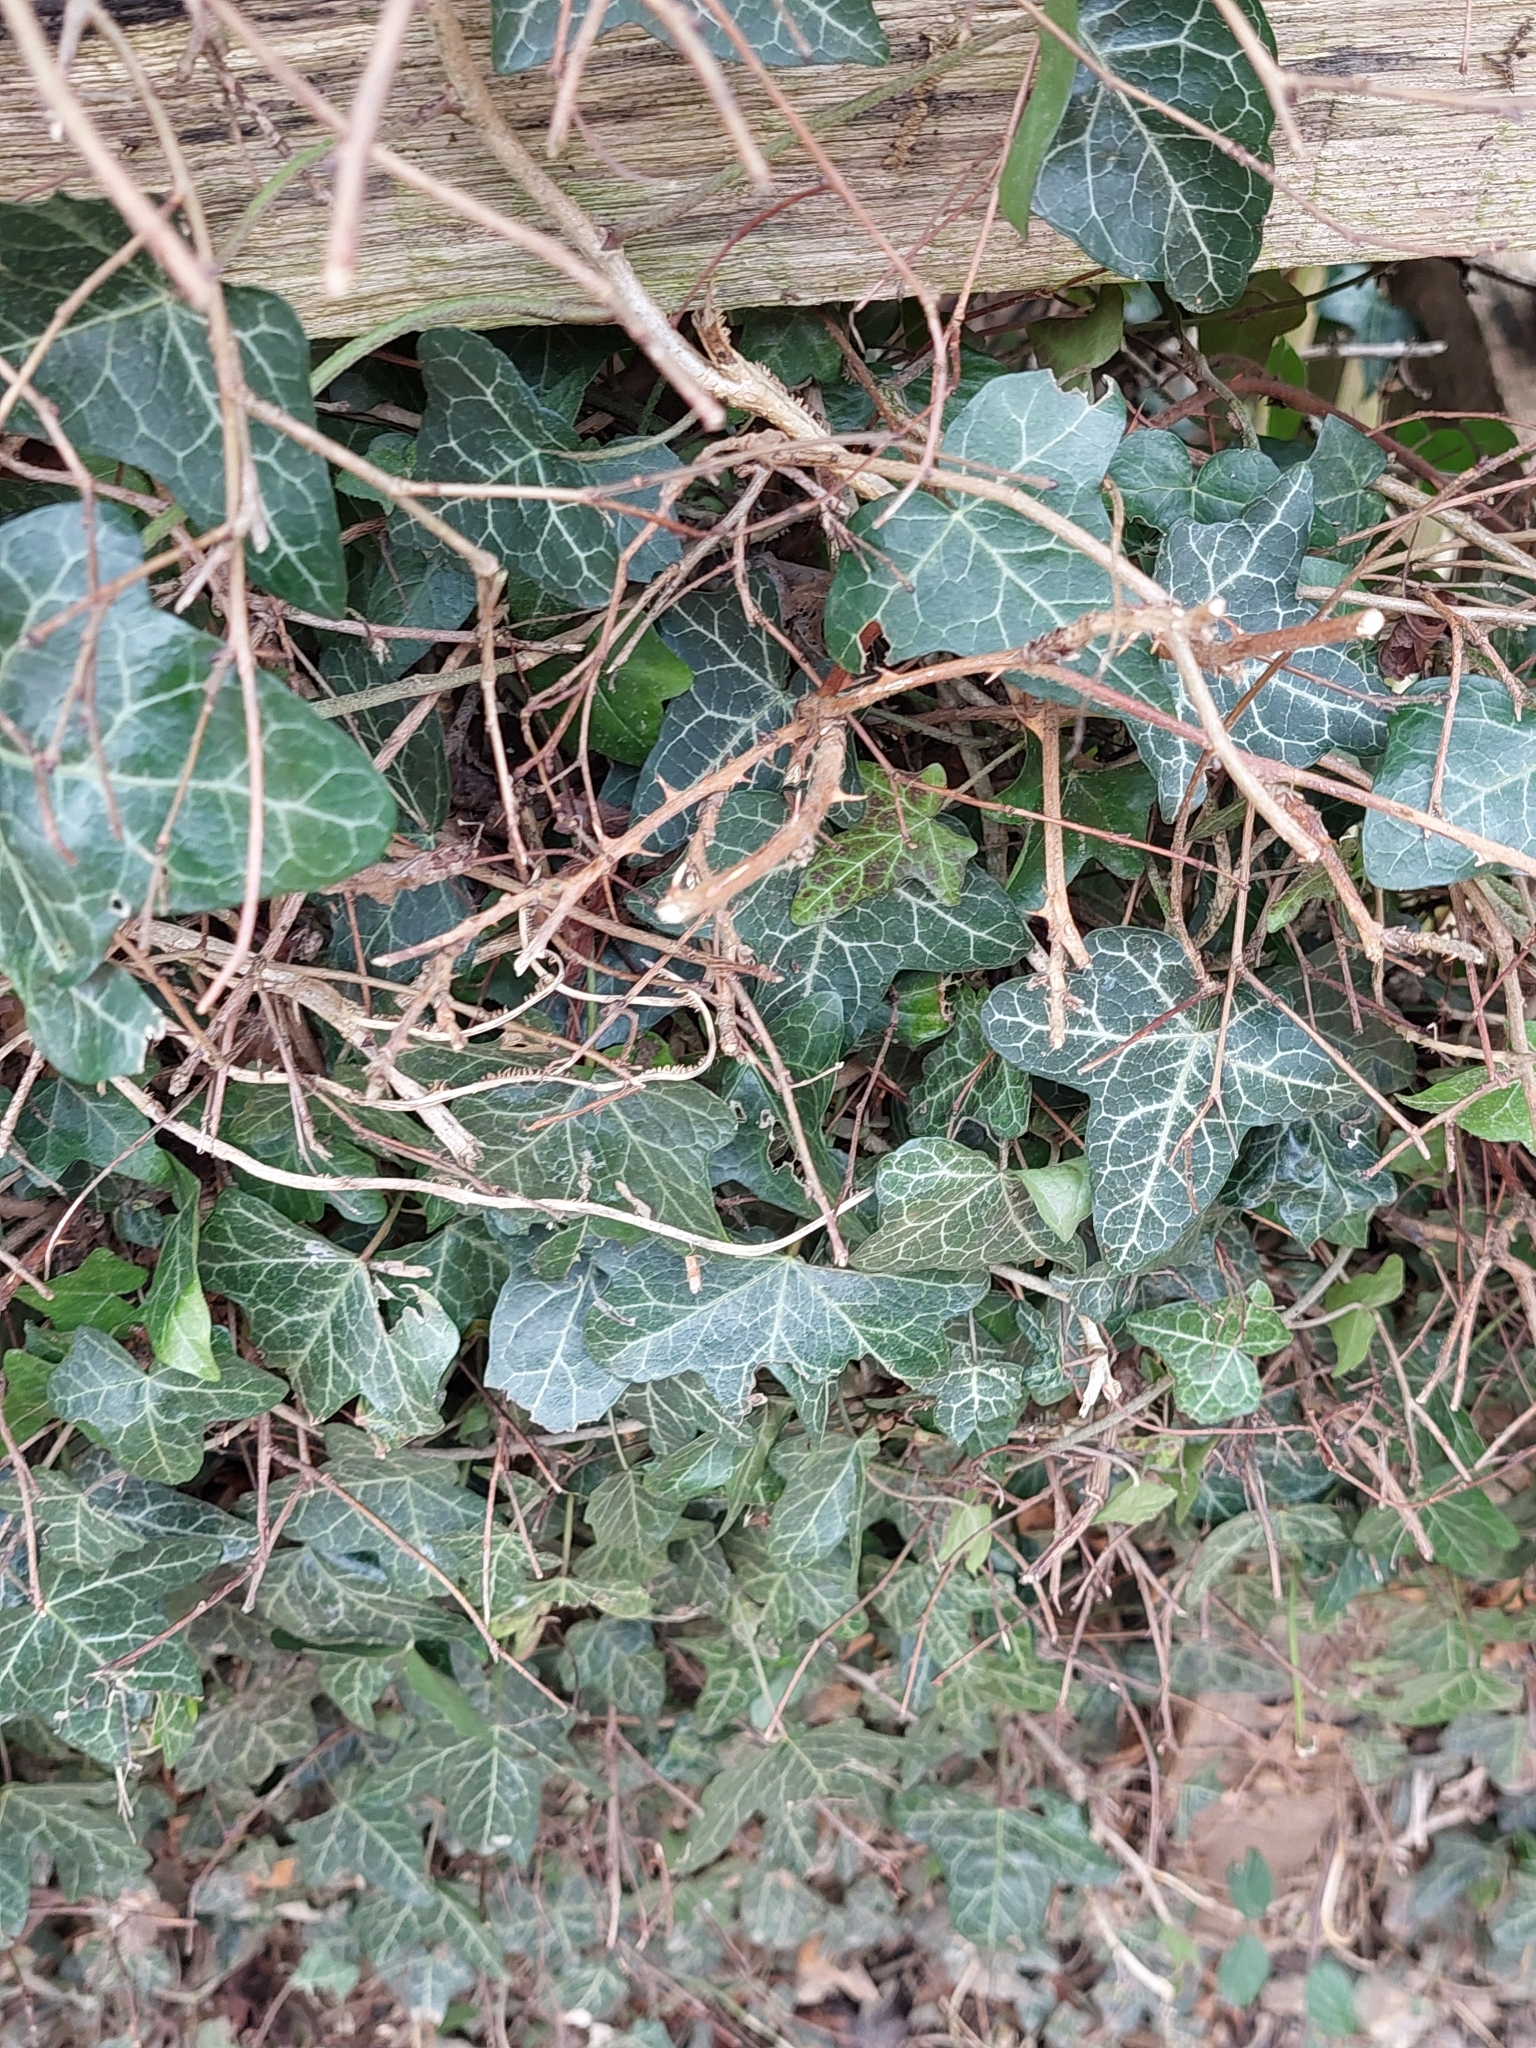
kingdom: Plantae
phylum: Tracheophyta
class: Magnoliopsida
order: Apiales
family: Araliaceae
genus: Hedera
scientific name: Hedera helix
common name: Ivy
